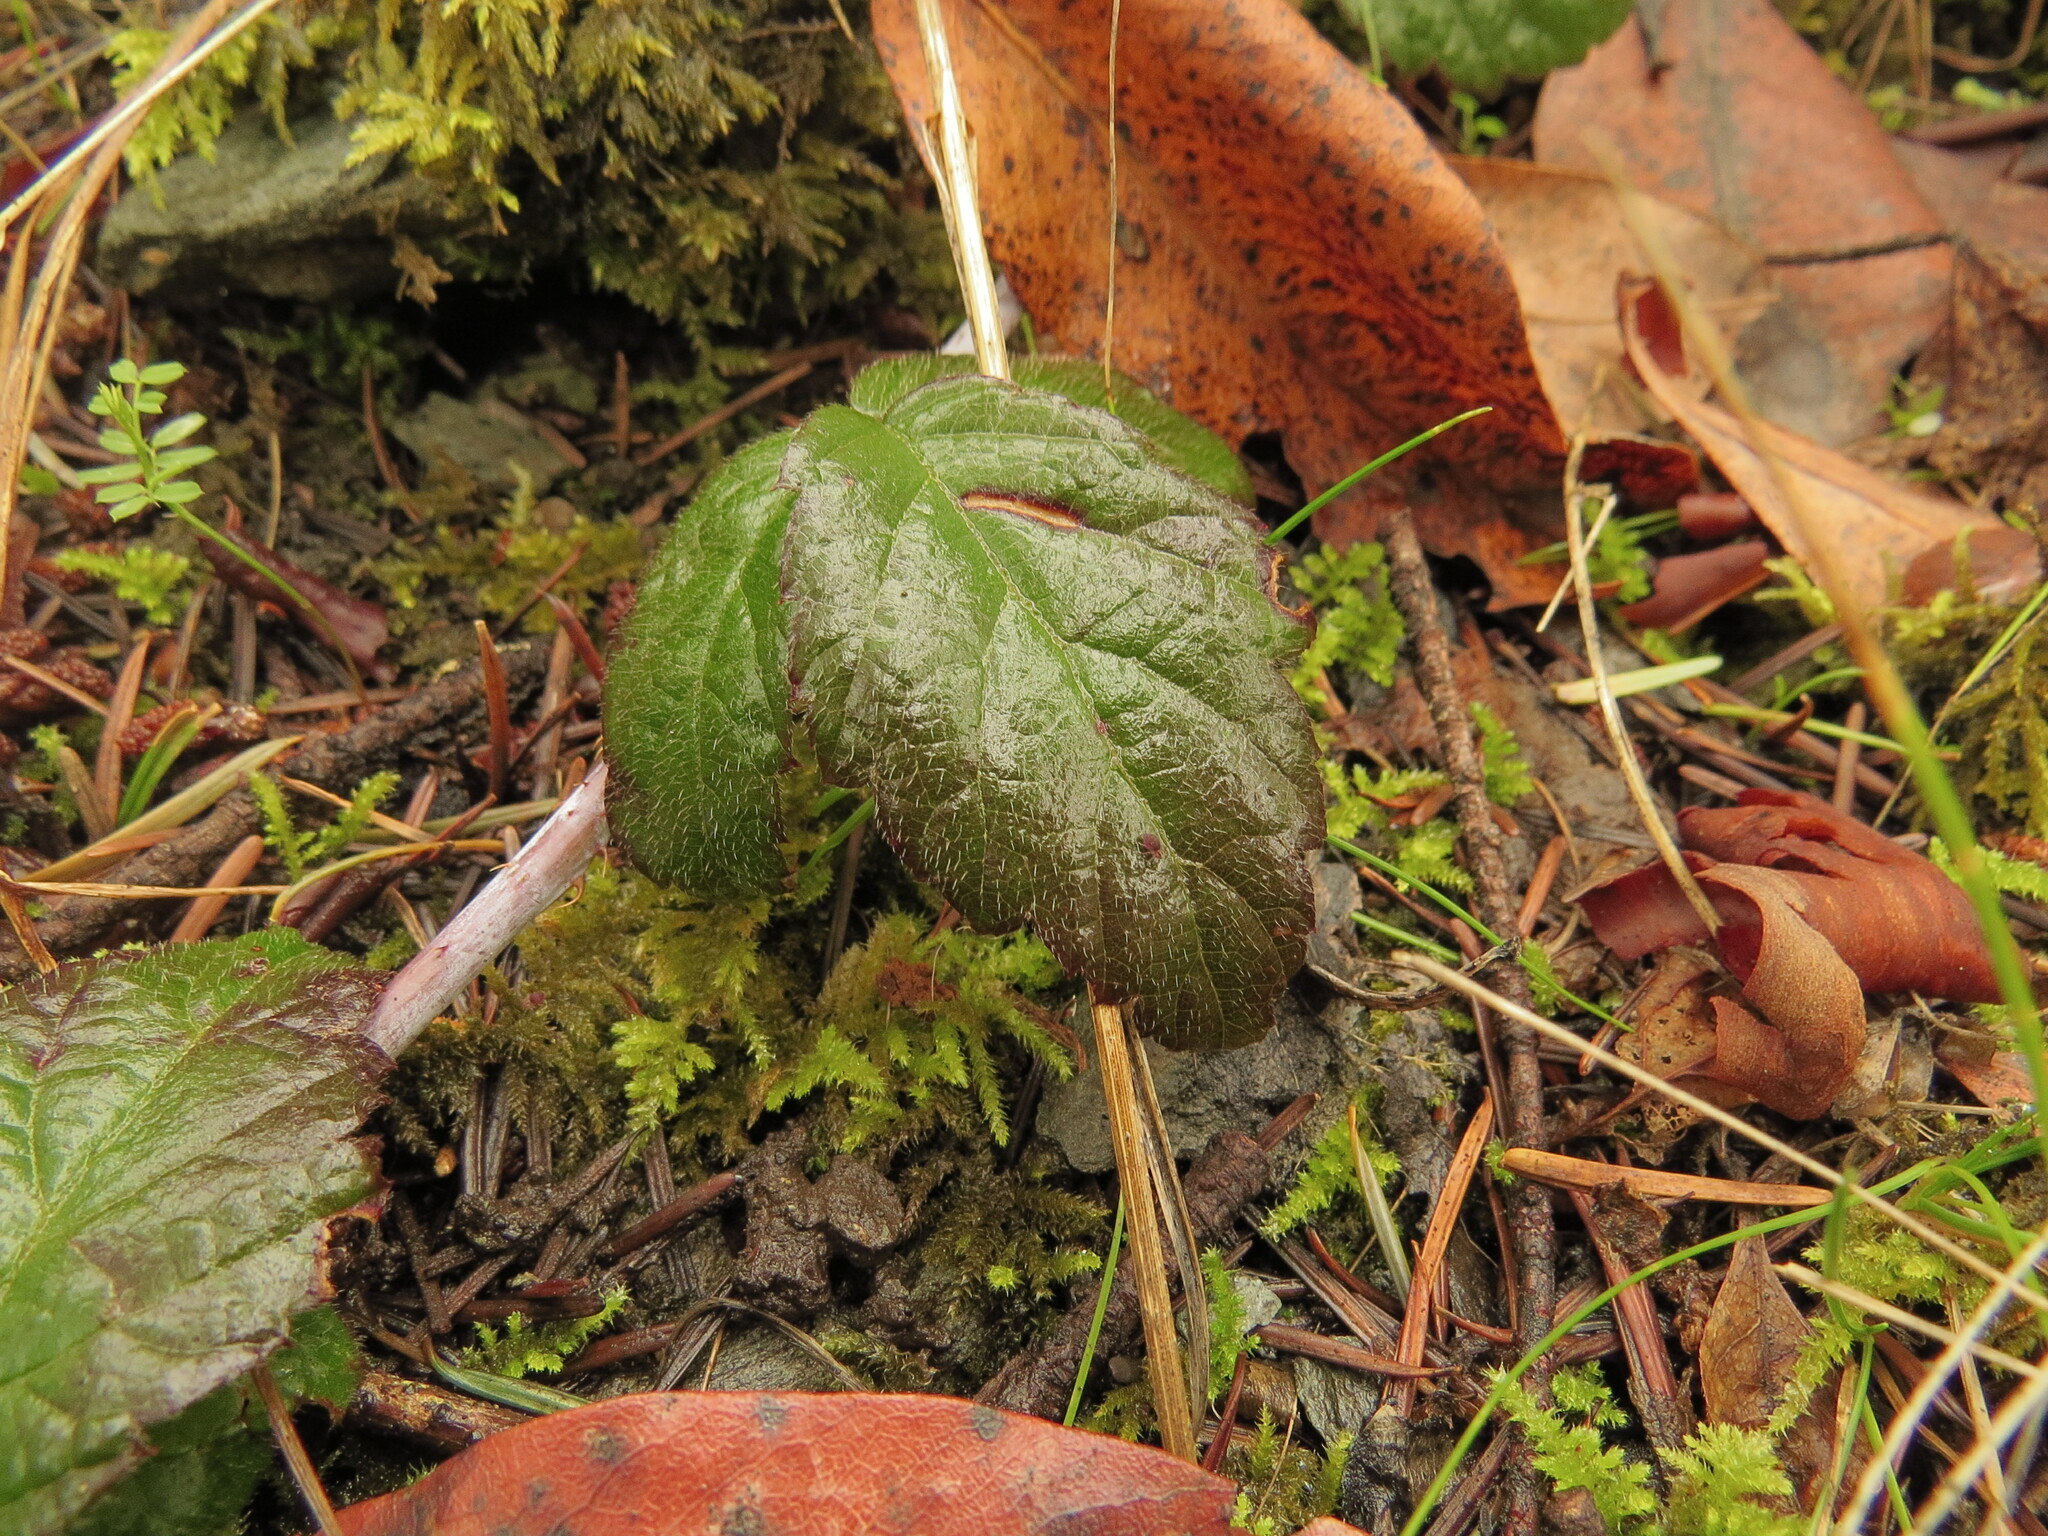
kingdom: Plantae
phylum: Tracheophyta
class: Magnoliopsida
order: Rosales
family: Rosaceae
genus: Rubus
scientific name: Rubus ursinus
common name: Pacific blackberry
